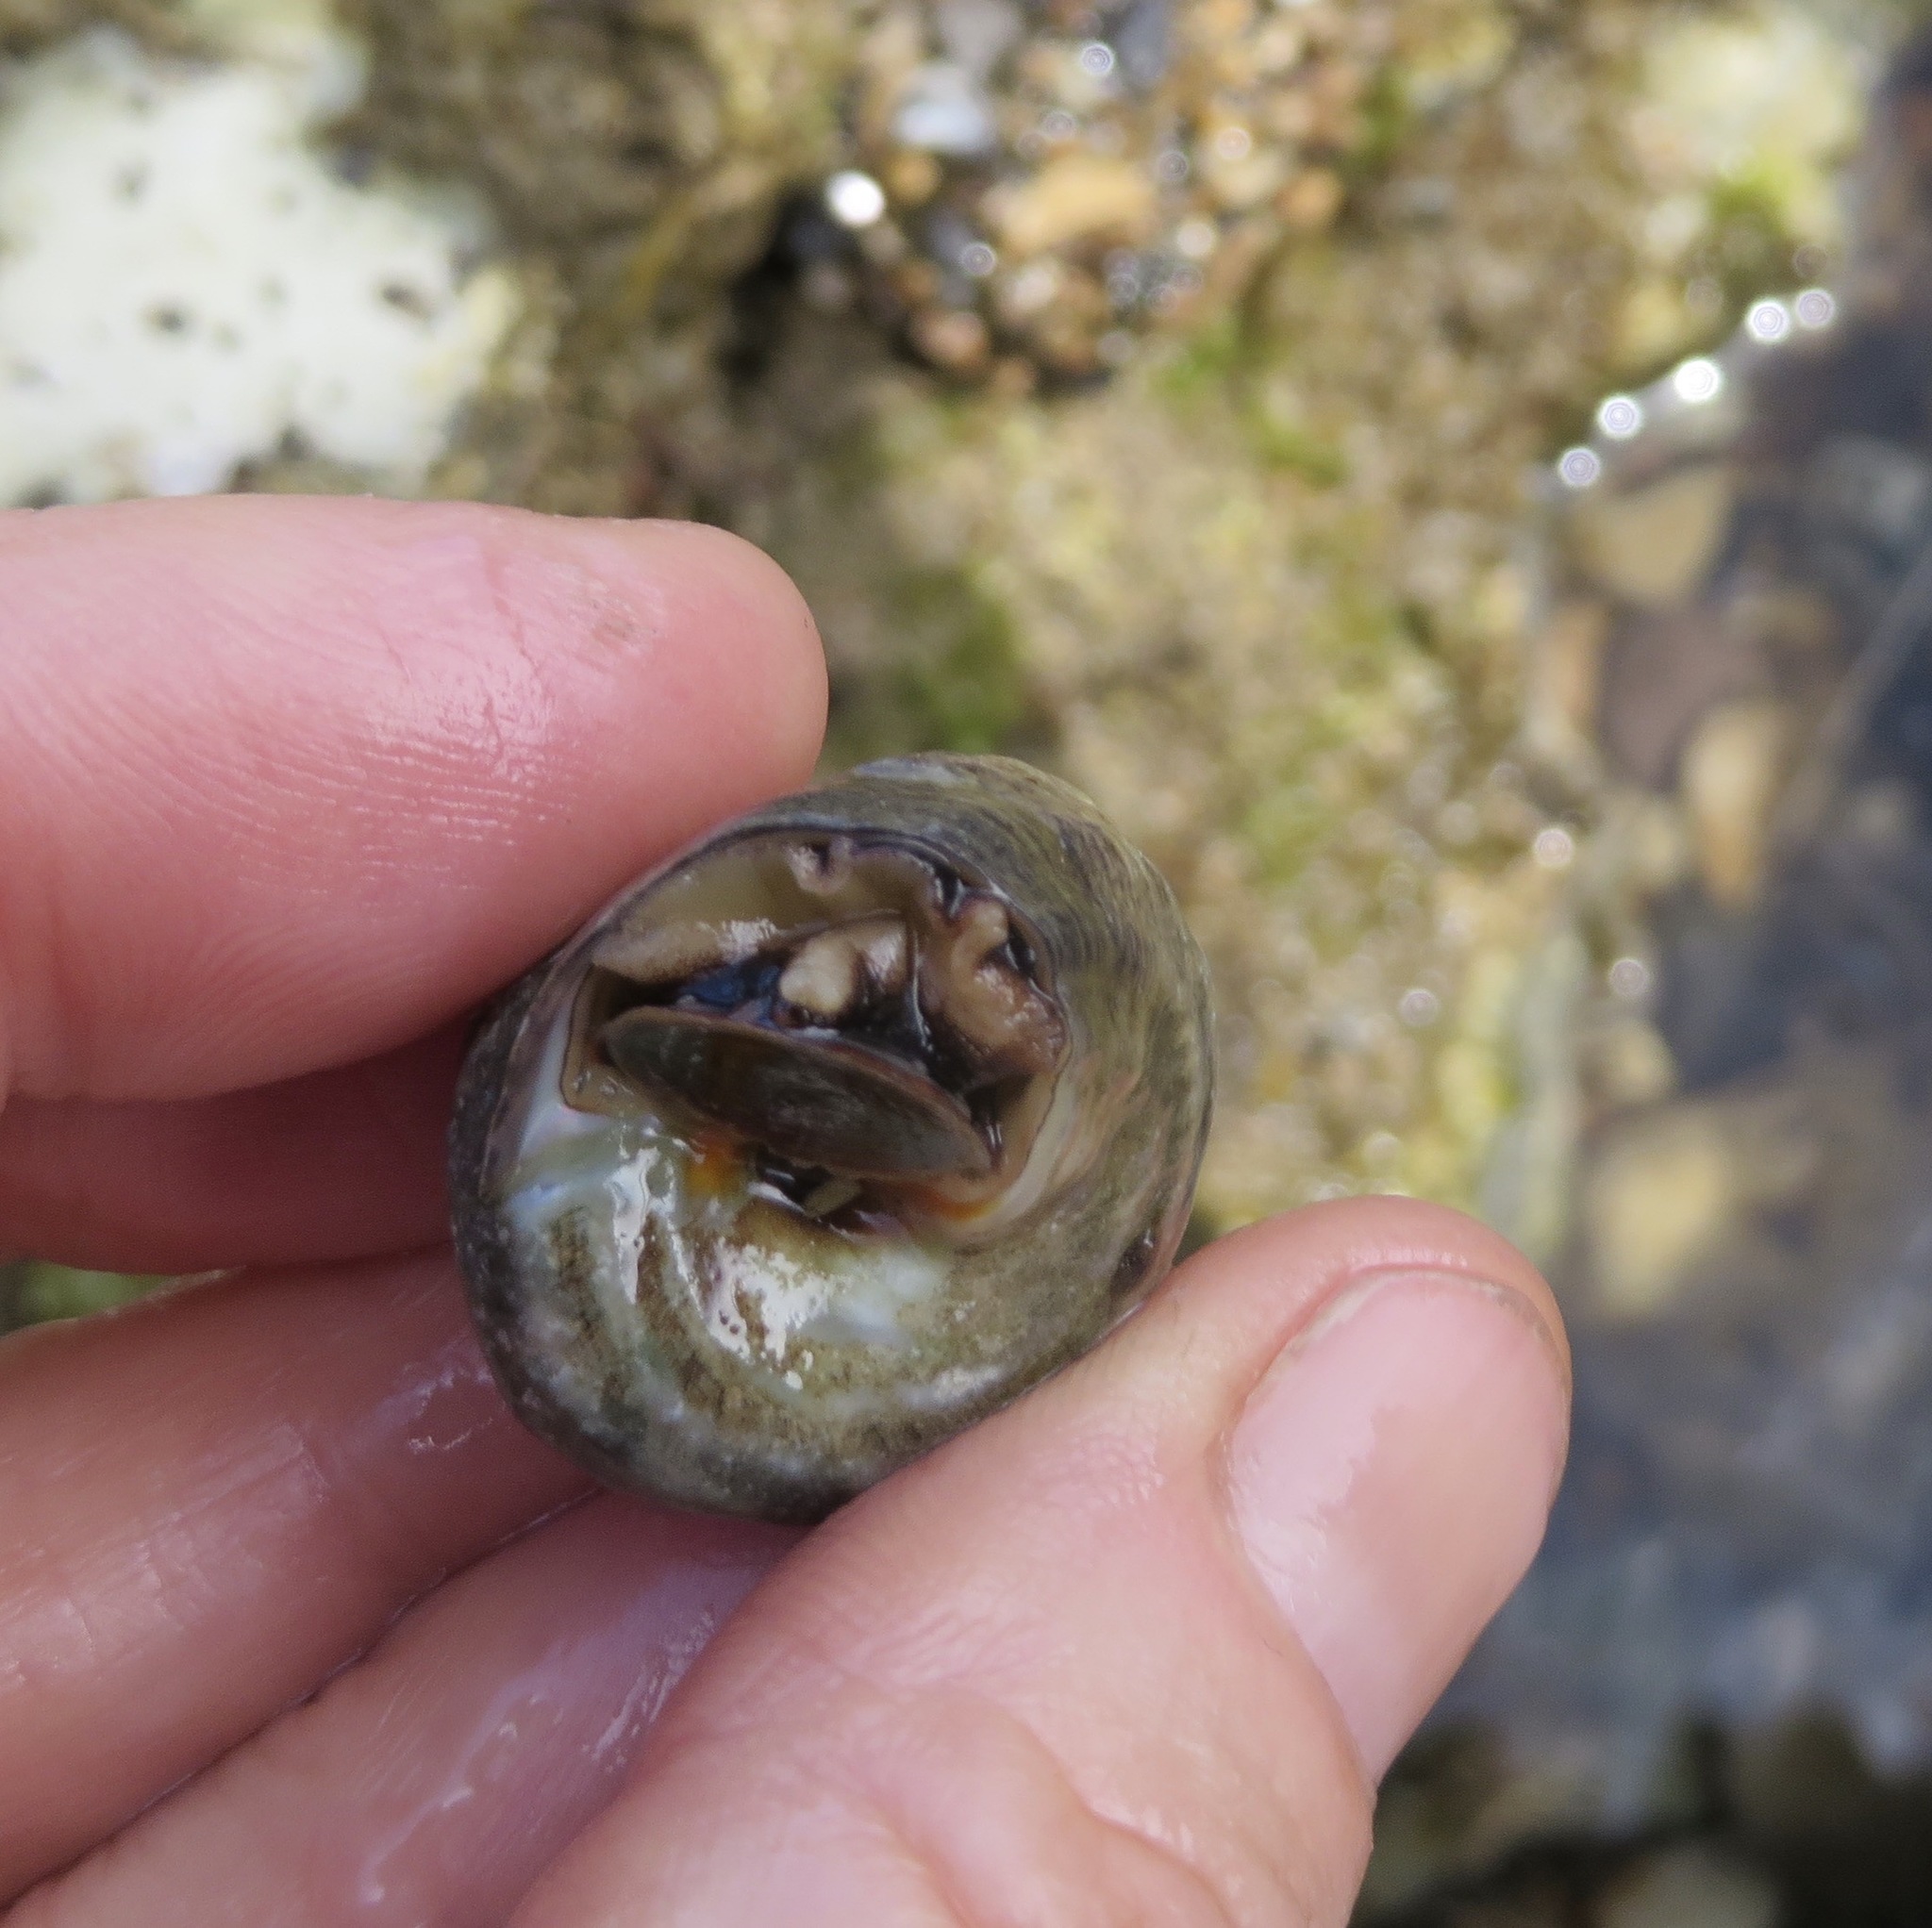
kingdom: Animalia
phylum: Mollusca
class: Gastropoda
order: Trochida
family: Tegulidae
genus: Tegula
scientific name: Tegula aureotincta
